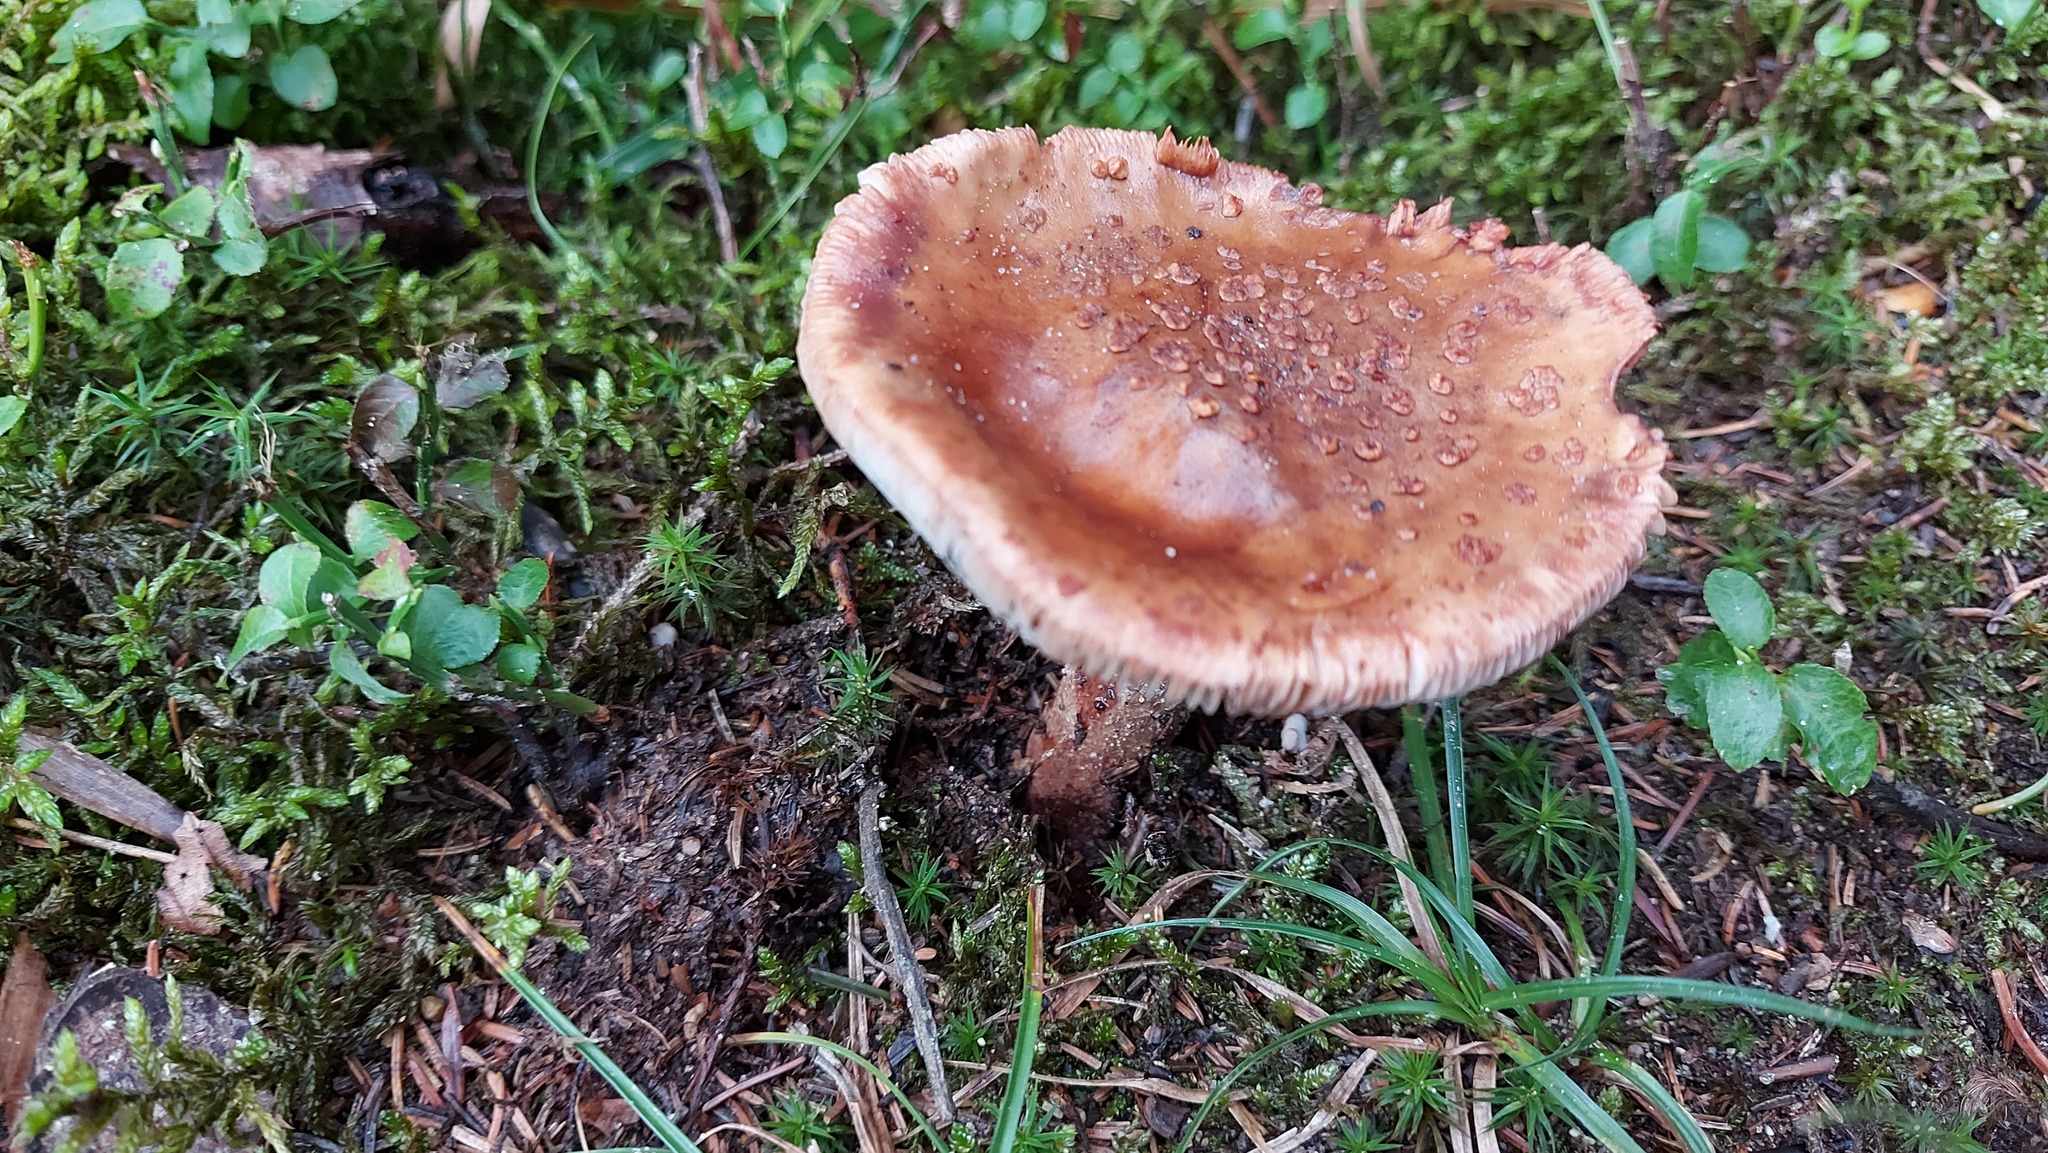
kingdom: Fungi
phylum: Basidiomycota
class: Agaricomycetes
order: Agaricales
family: Amanitaceae
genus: Amanita
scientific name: Amanita rubescens
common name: Blusher
